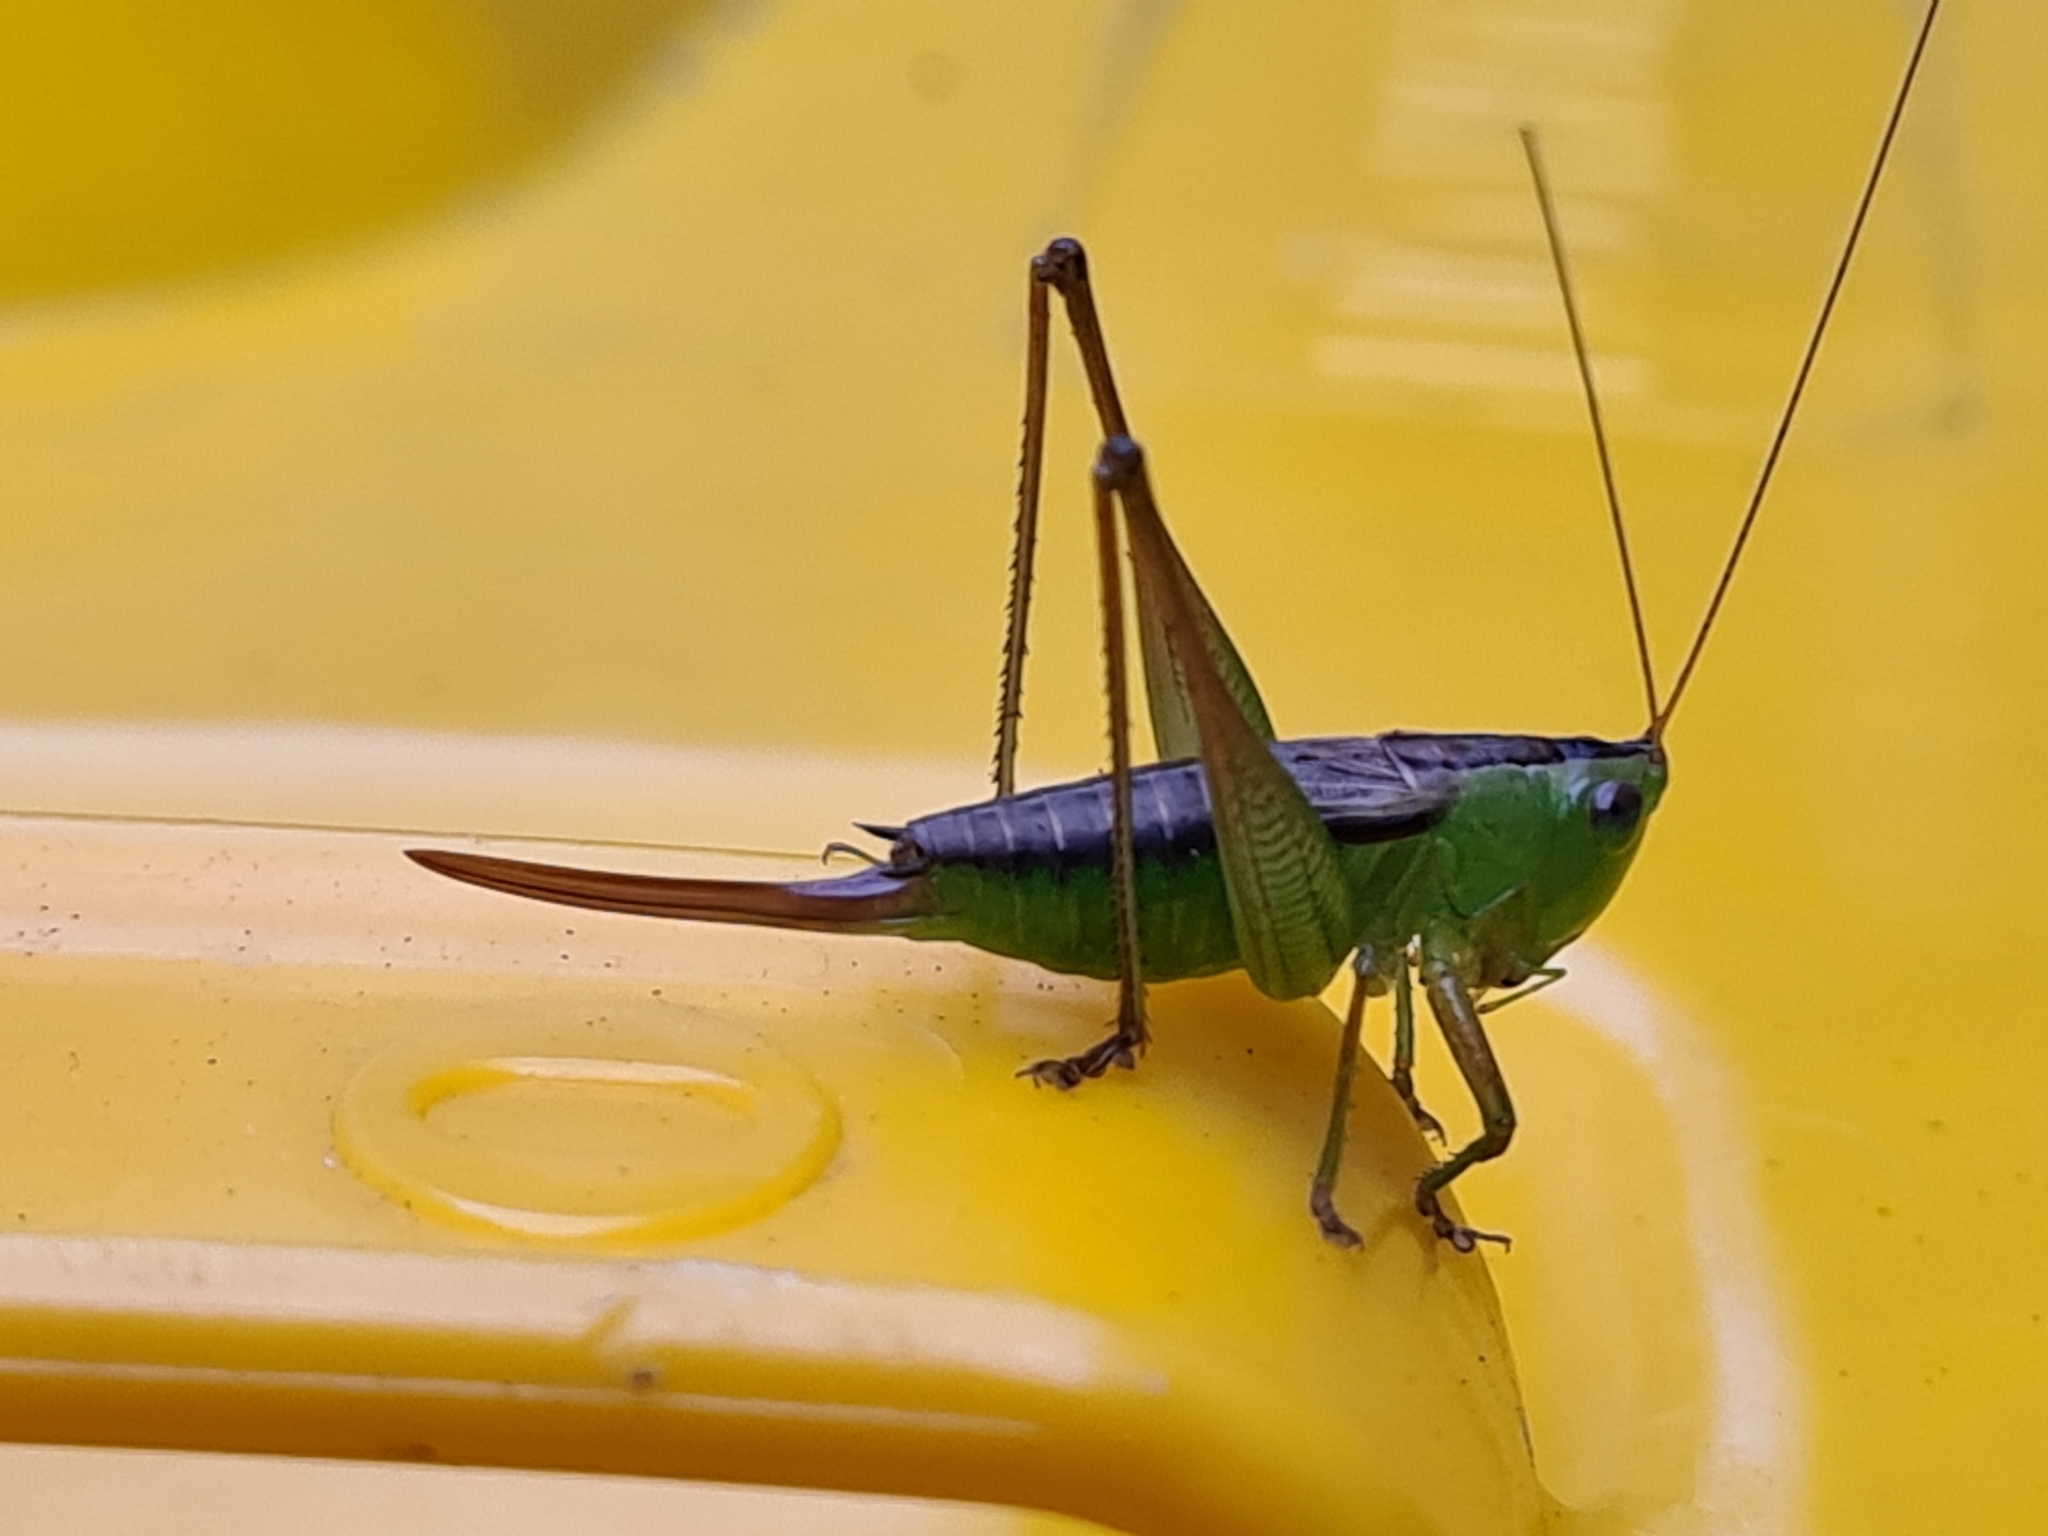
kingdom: Animalia
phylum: Arthropoda
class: Insecta
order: Orthoptera
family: Tettigoniidae
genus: Conocephalus
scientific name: Conocephalus semivittatus
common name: Blackish meadow katydid
